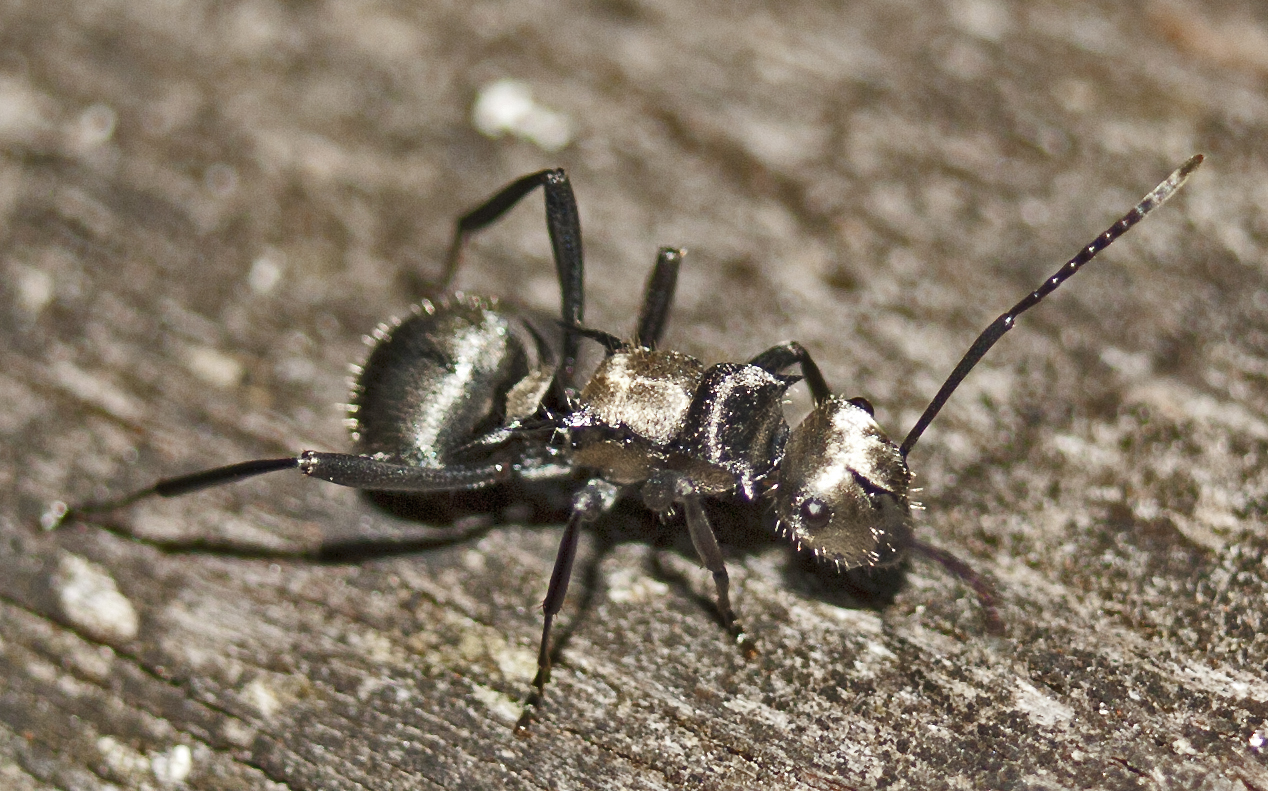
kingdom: Animalia
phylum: Arthropoda
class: Insecta
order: Hymenoptera
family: Formicidae
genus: Polyrhachis
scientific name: Polyrhachis daemeli
